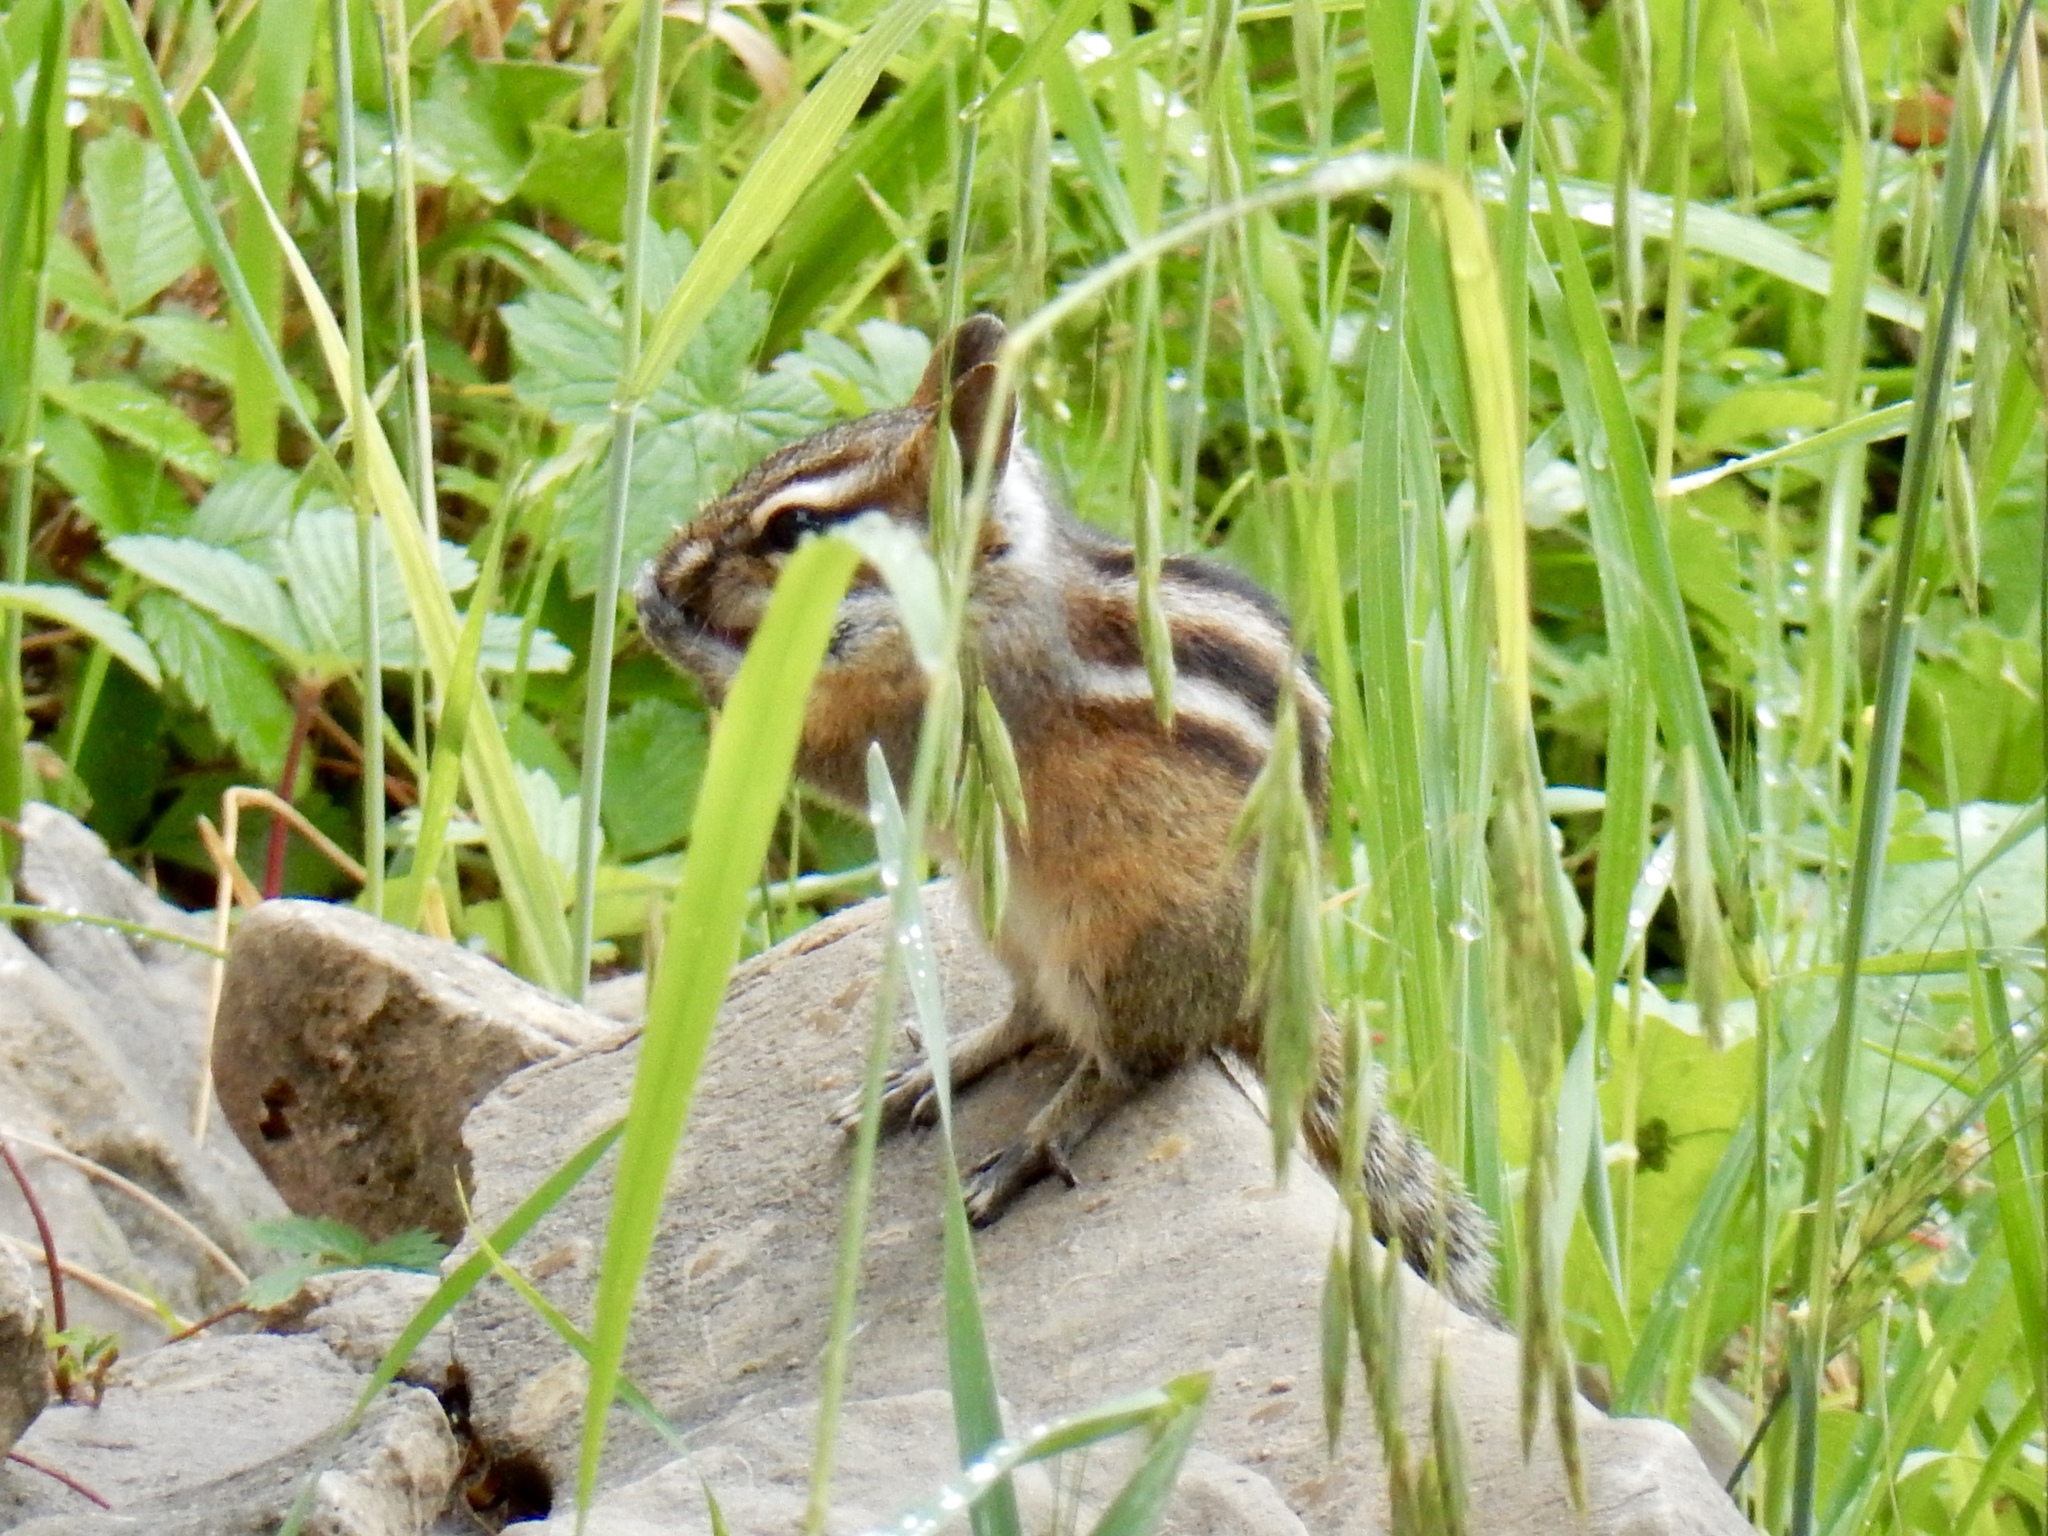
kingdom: Animalia
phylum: Chordata
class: Mammalia
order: Rodentia
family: Sciuridae
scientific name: Sciuridae
